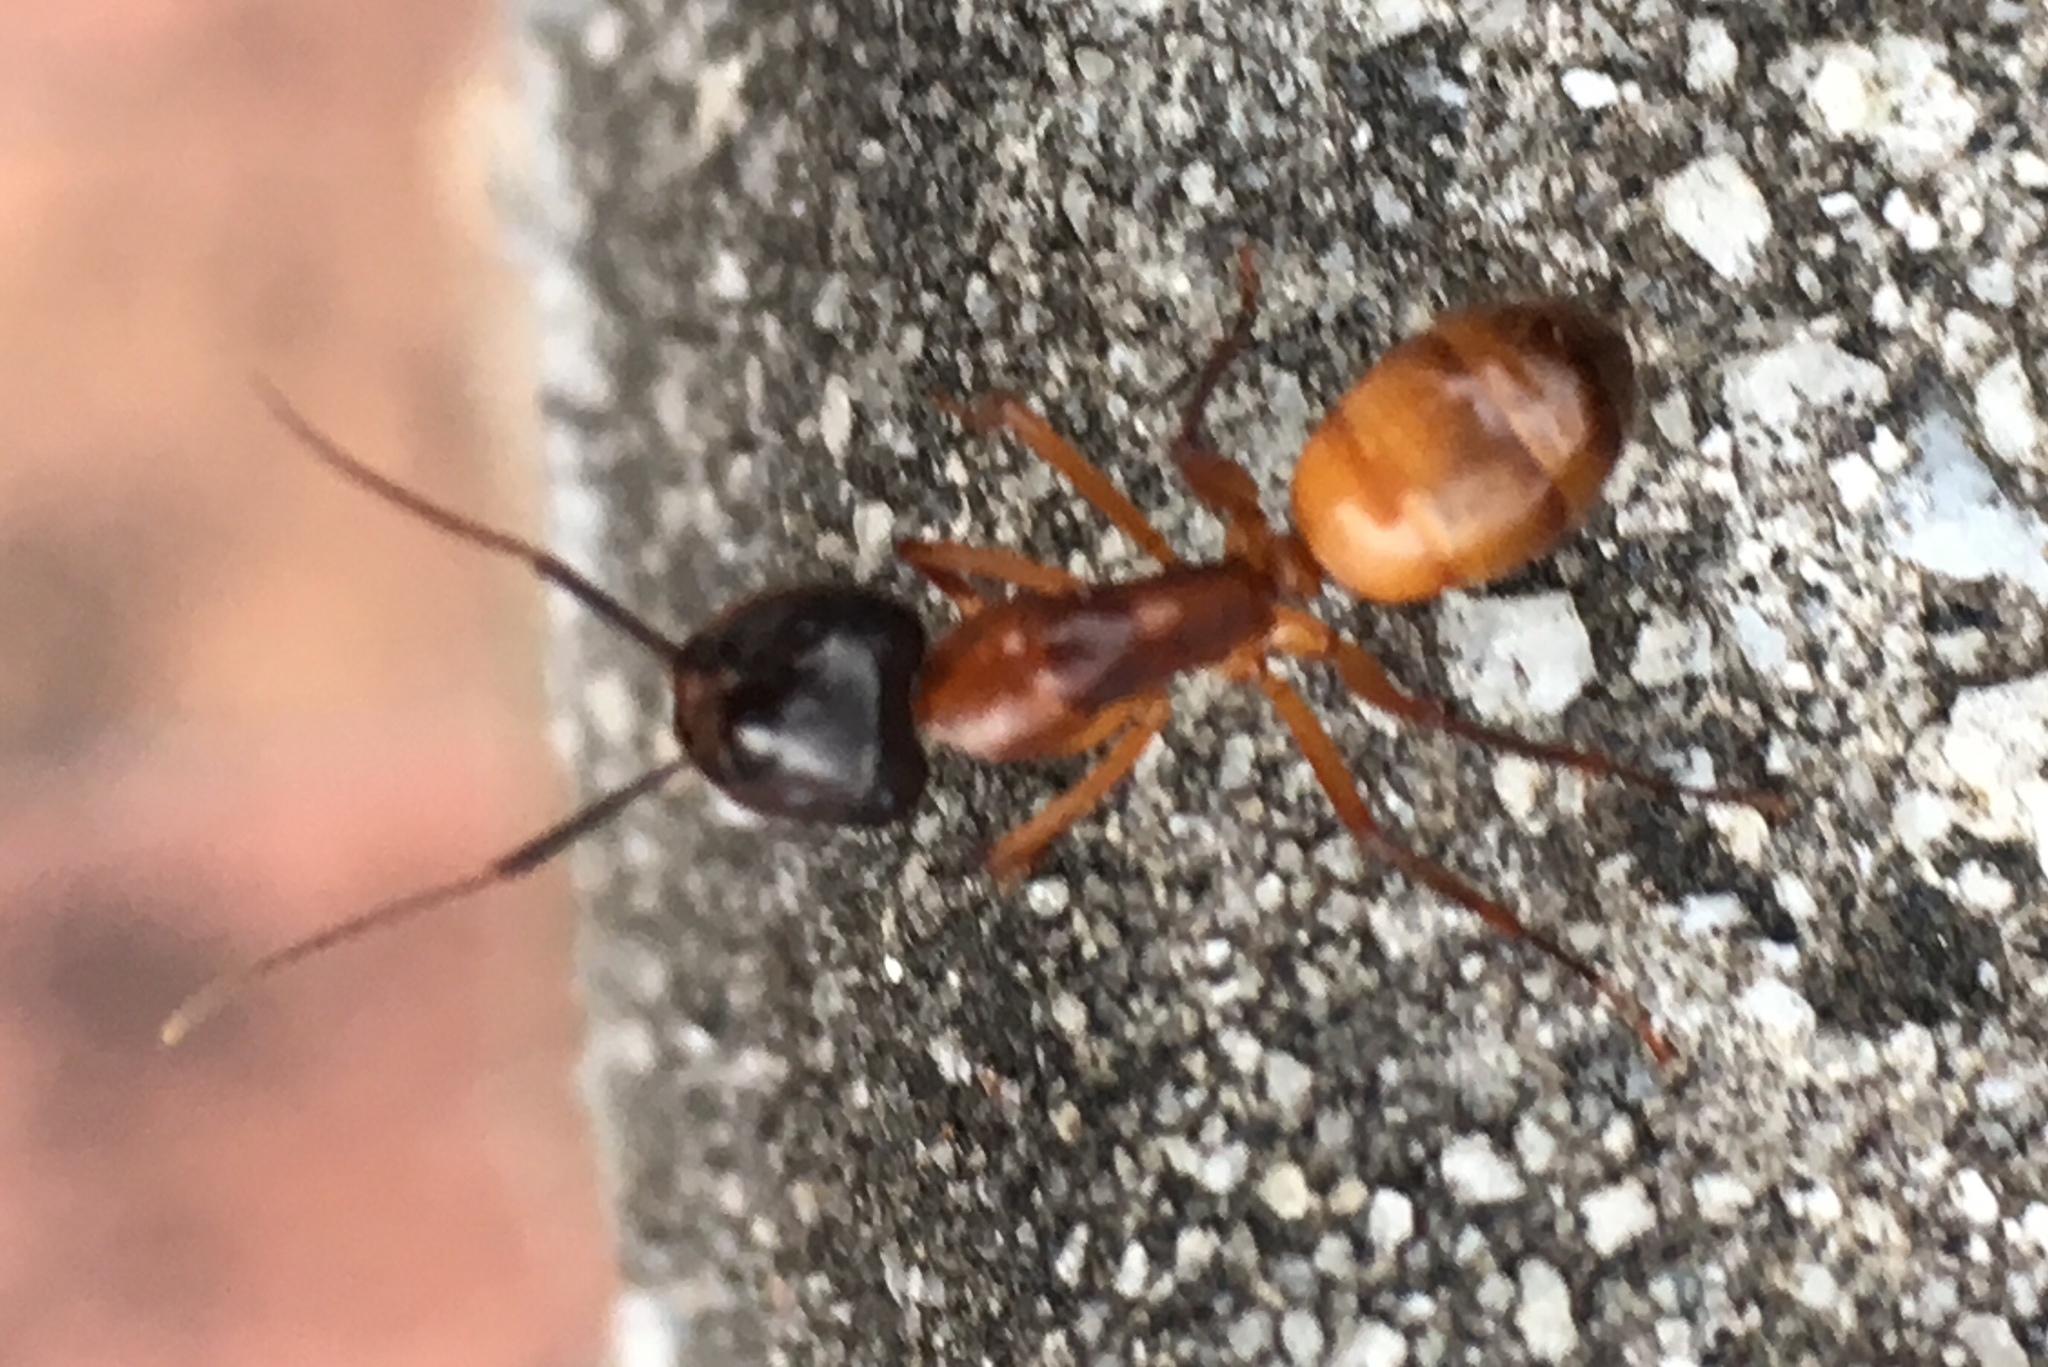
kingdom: Animalia
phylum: Arthropoda
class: Insecta
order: Hymenoptera
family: Formicidae
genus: Camponotus
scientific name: Camponotus americanus
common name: American carpenter ant
